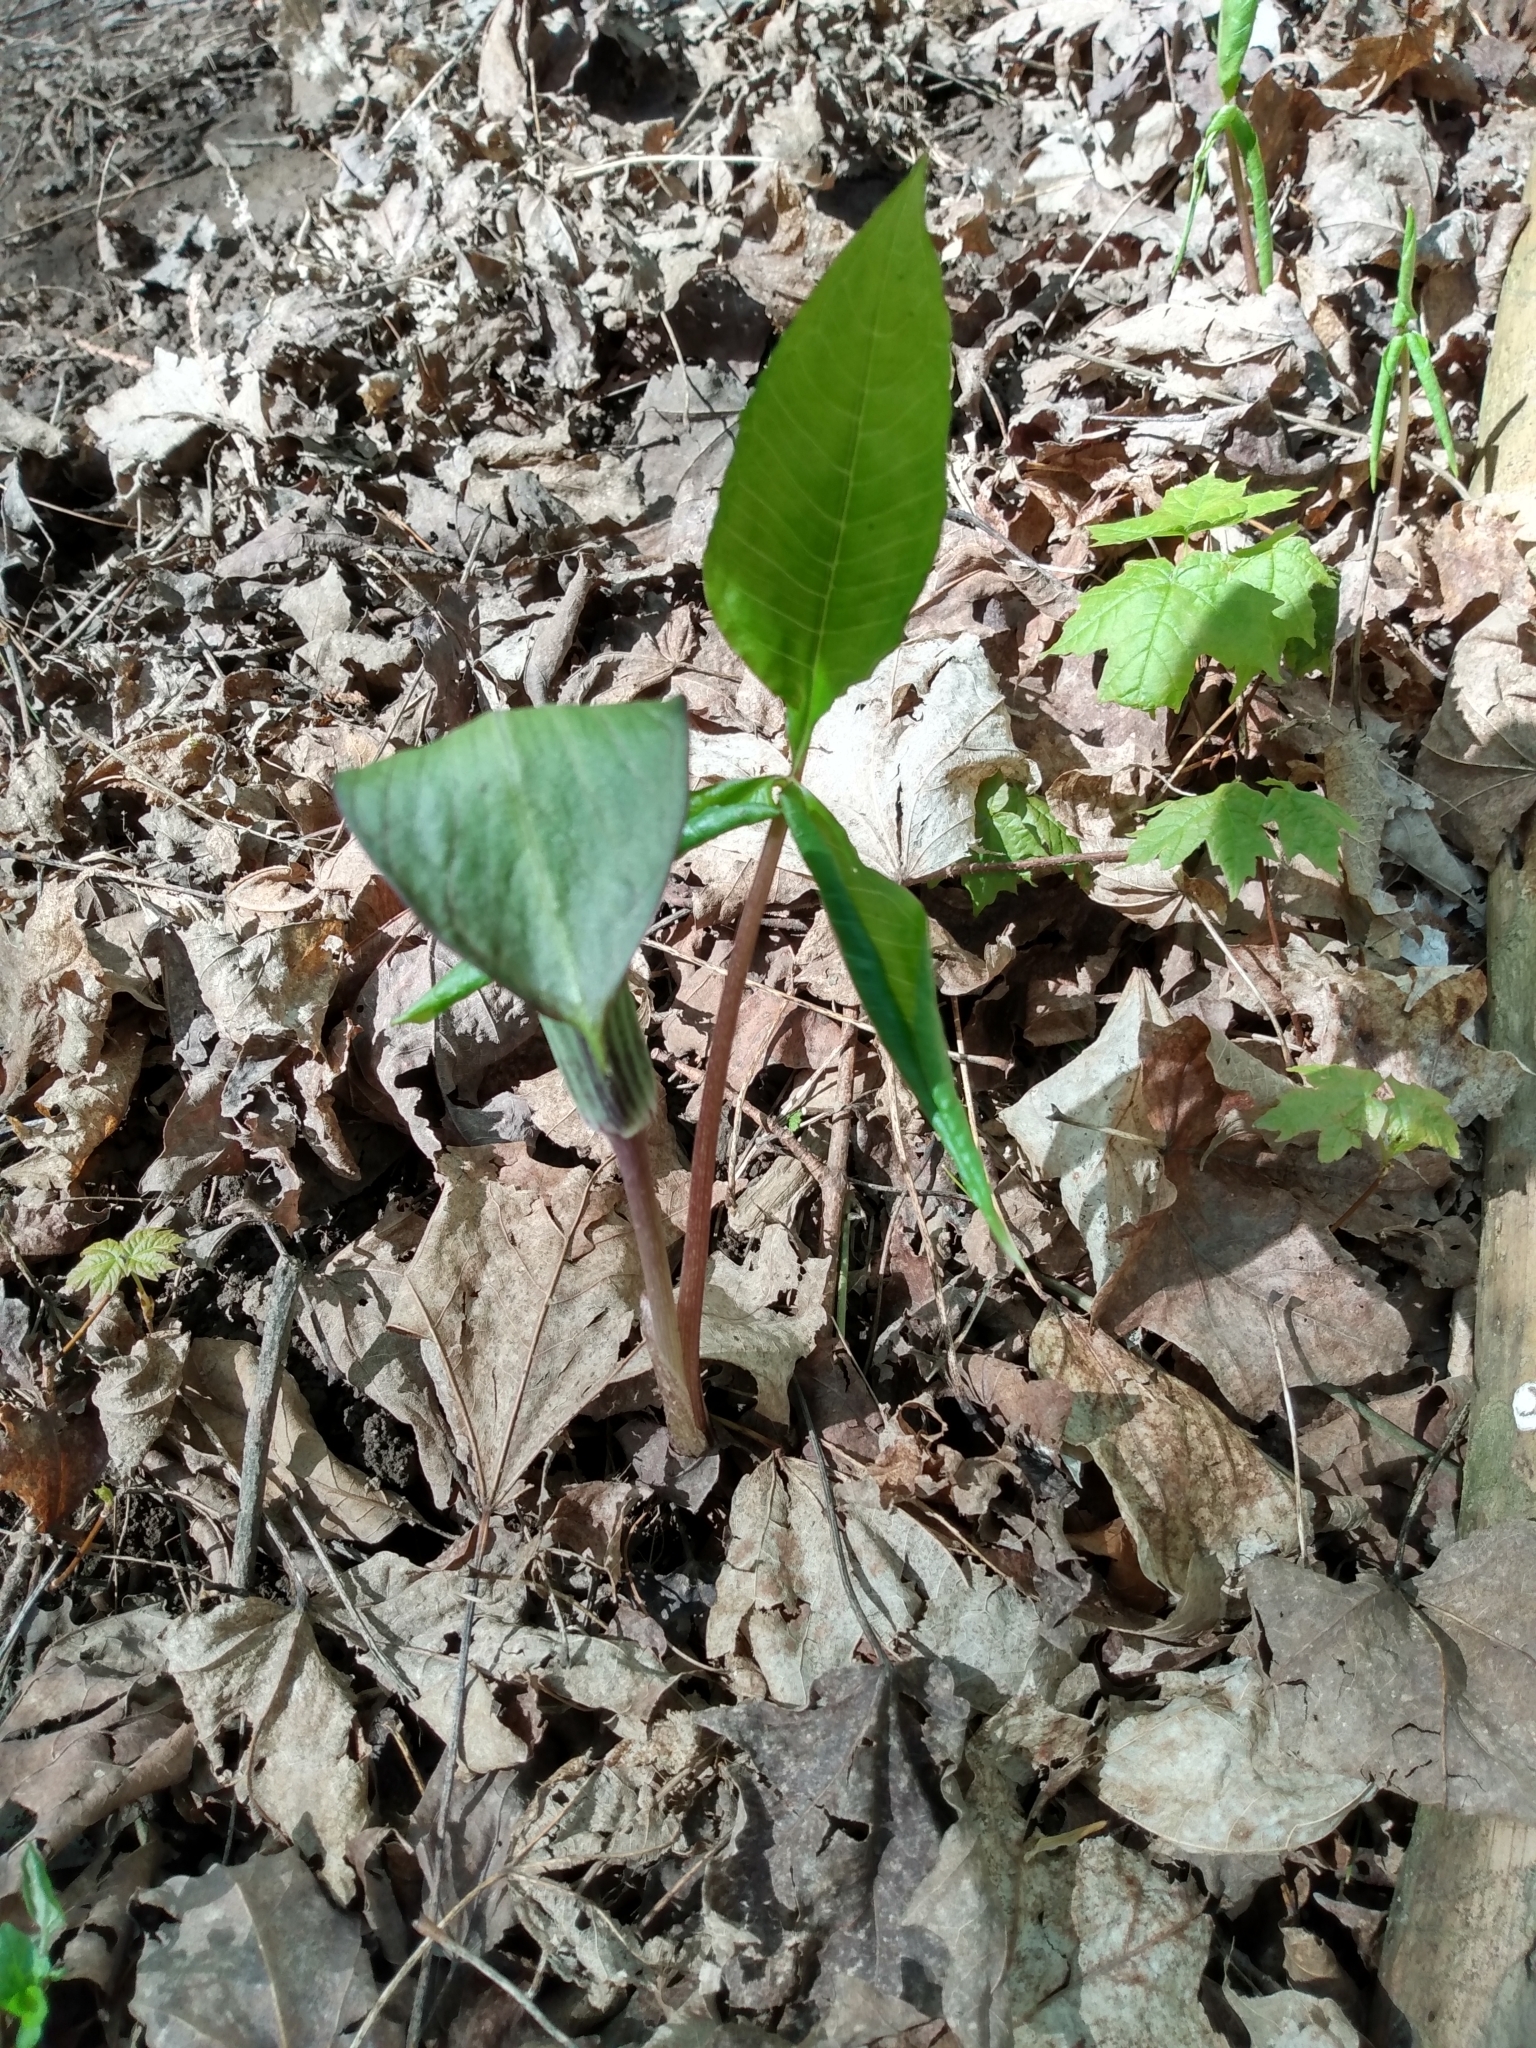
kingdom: Plantae
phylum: Tracheophyta
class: Liliopsida
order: Alismatales
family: Araceae
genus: Arisaema
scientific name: Arisaema triphyllum
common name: Jack-in-the-pulpit
